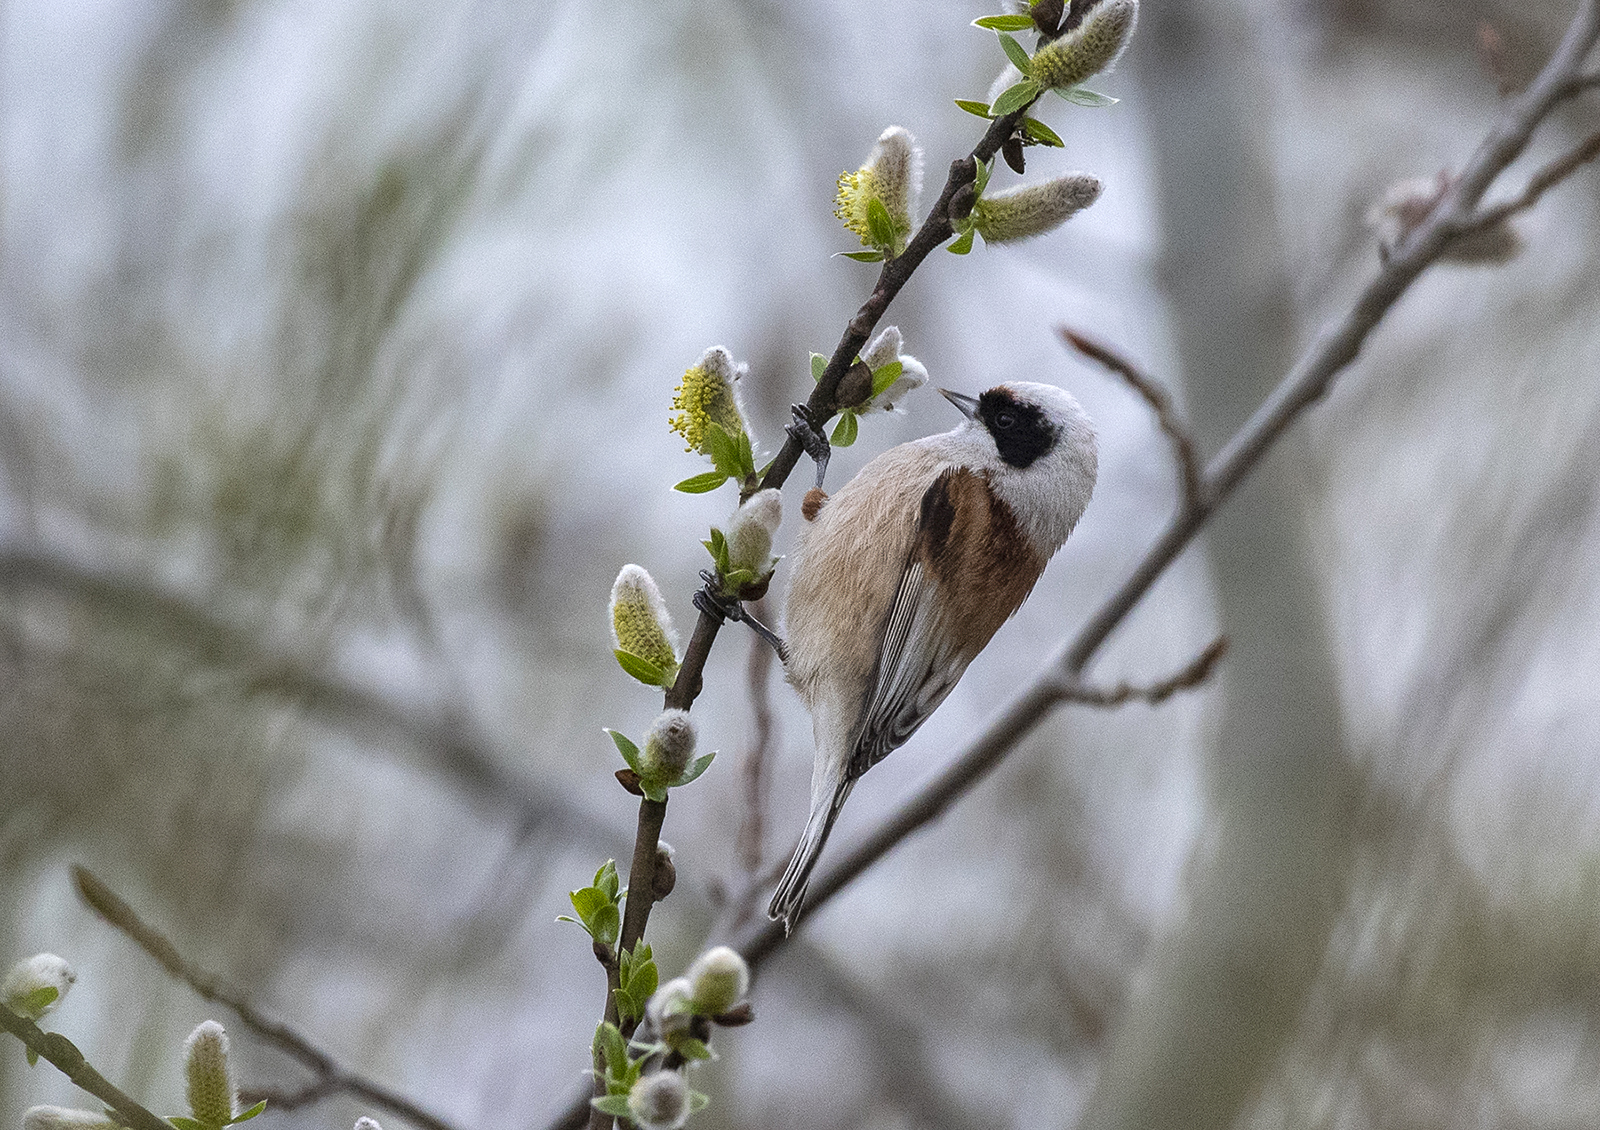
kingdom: Animalia
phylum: Chordata
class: Aves
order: Passeriformes
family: Remizidae
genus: Remiz
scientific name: Remiz pendulinus
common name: Eurasian penduline tit
